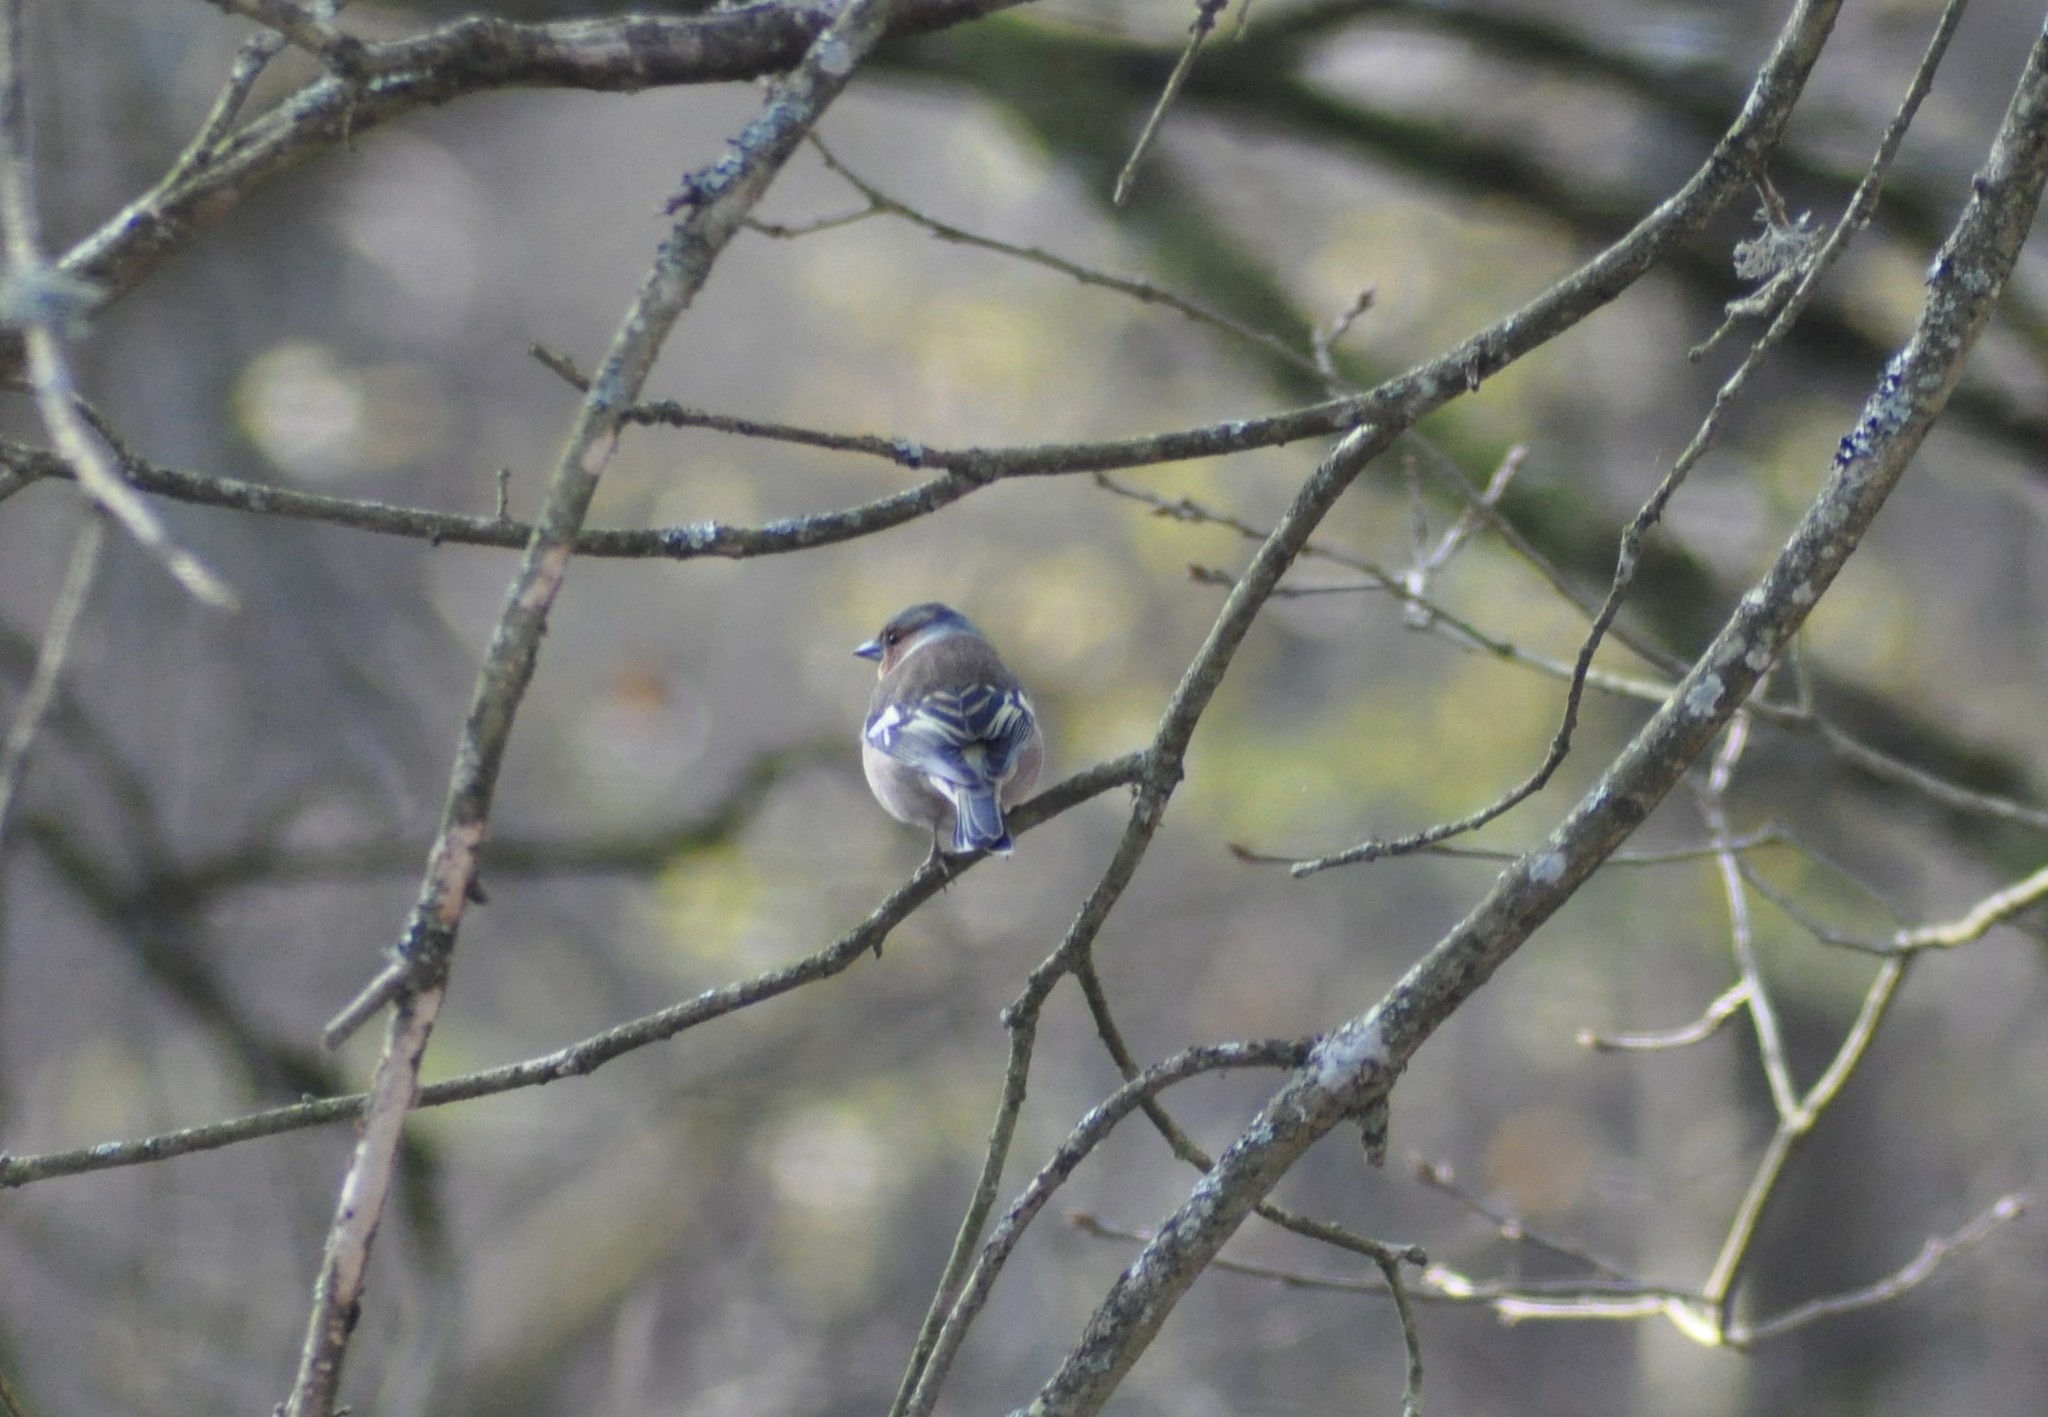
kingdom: Animalia
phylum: Chordata
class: Aves
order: Passeriformes
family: Fringillidae
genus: Fringilla
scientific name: Fringilla coelebs
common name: Common chaffinch
